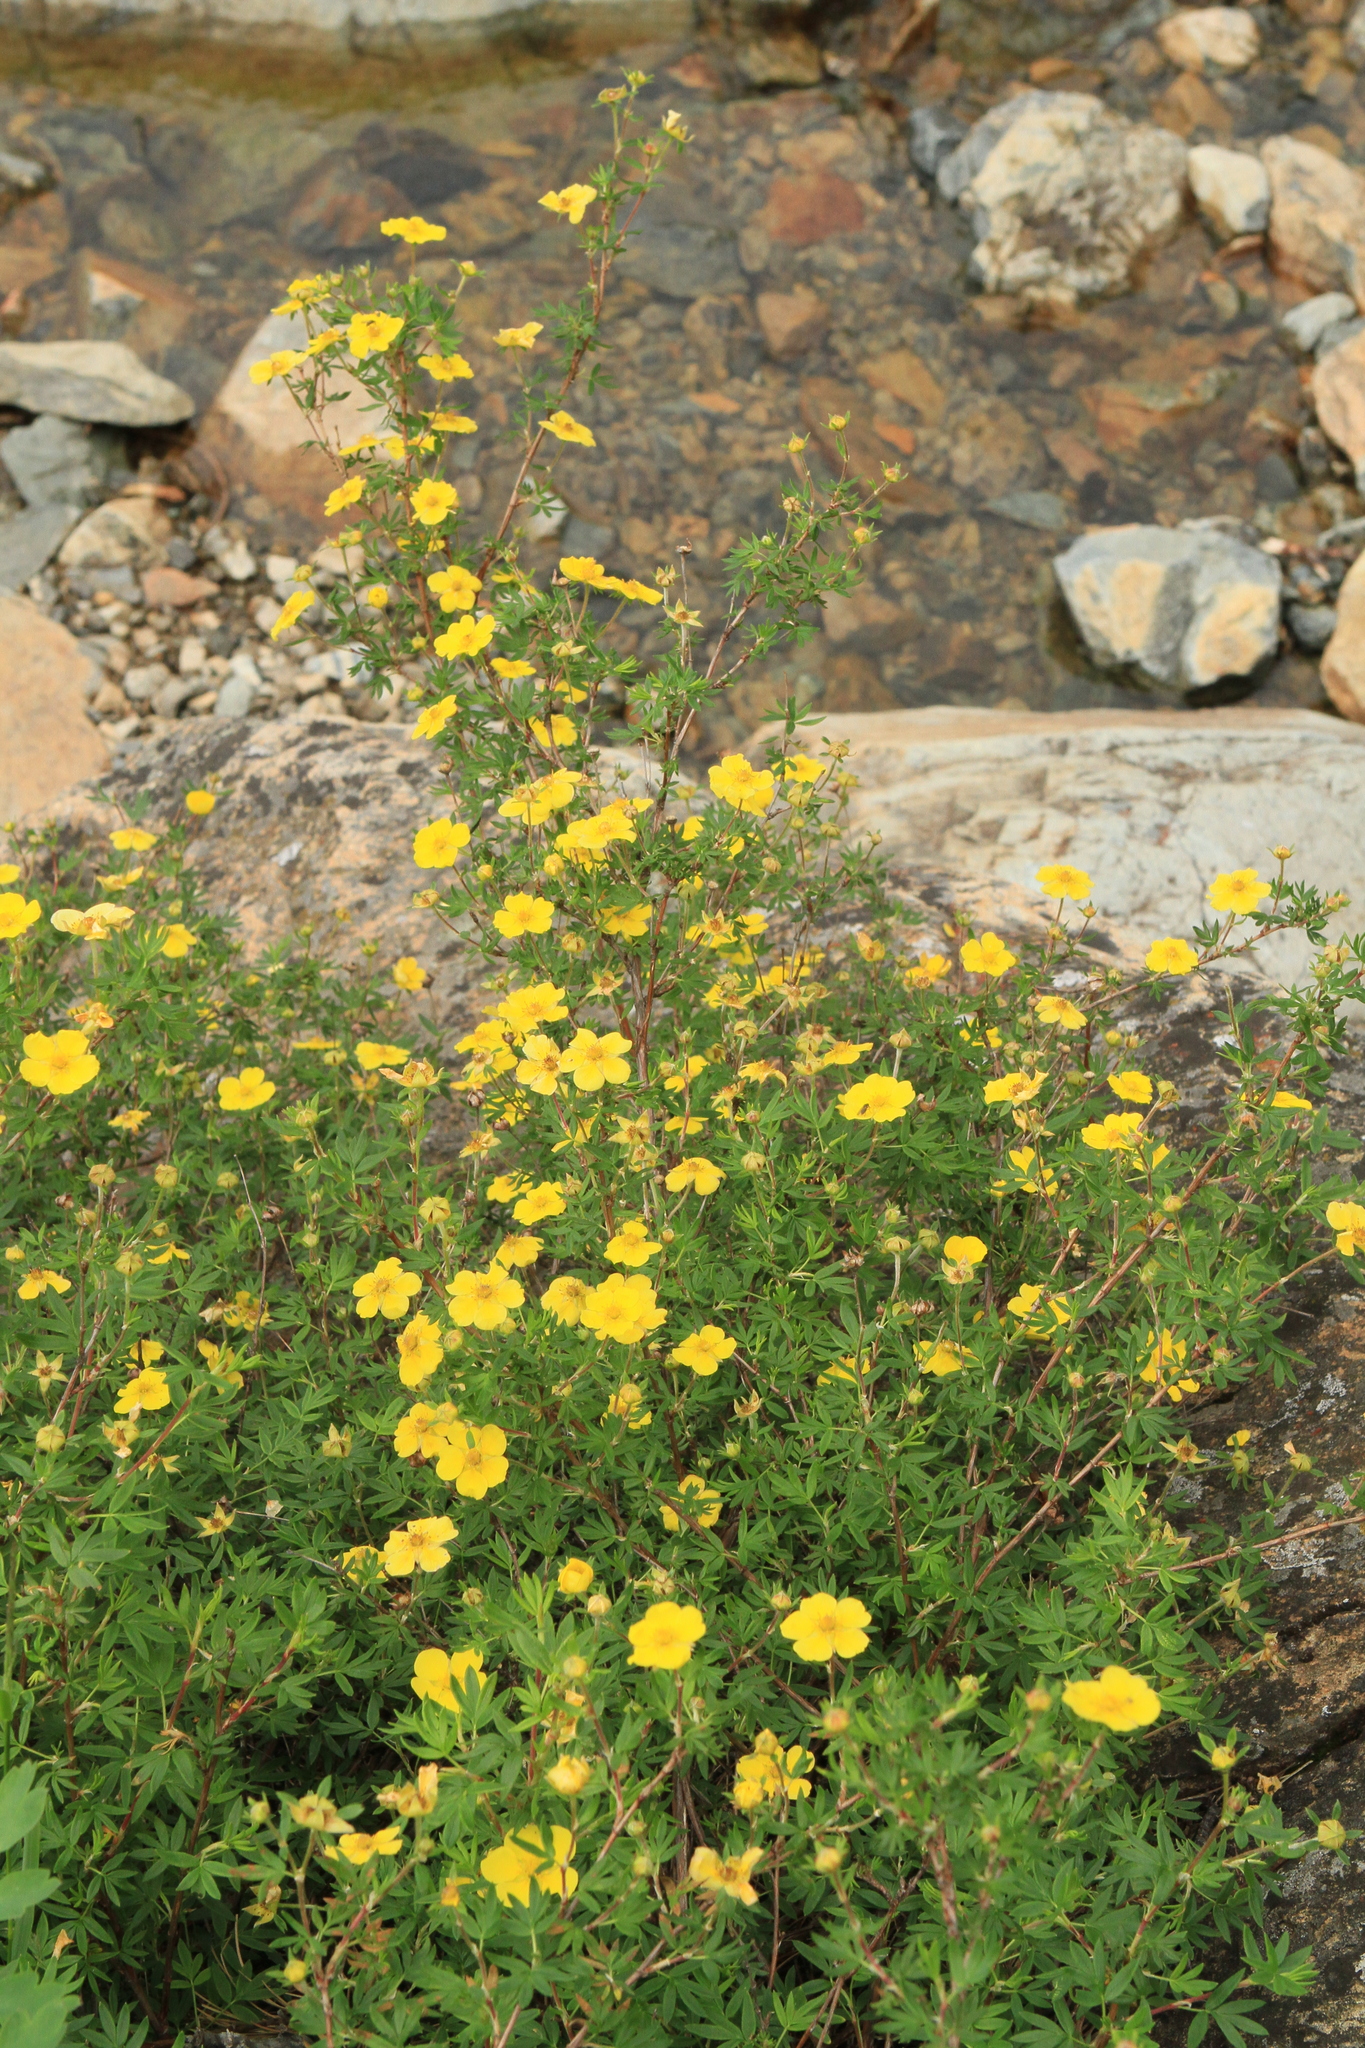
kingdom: Plantae
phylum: Tracheophyta
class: Magnoliopsida
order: Rosales
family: Rosaceae
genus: Dasiphora
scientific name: Dasiphora fruticosa
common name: Shrubby cinquefoil
